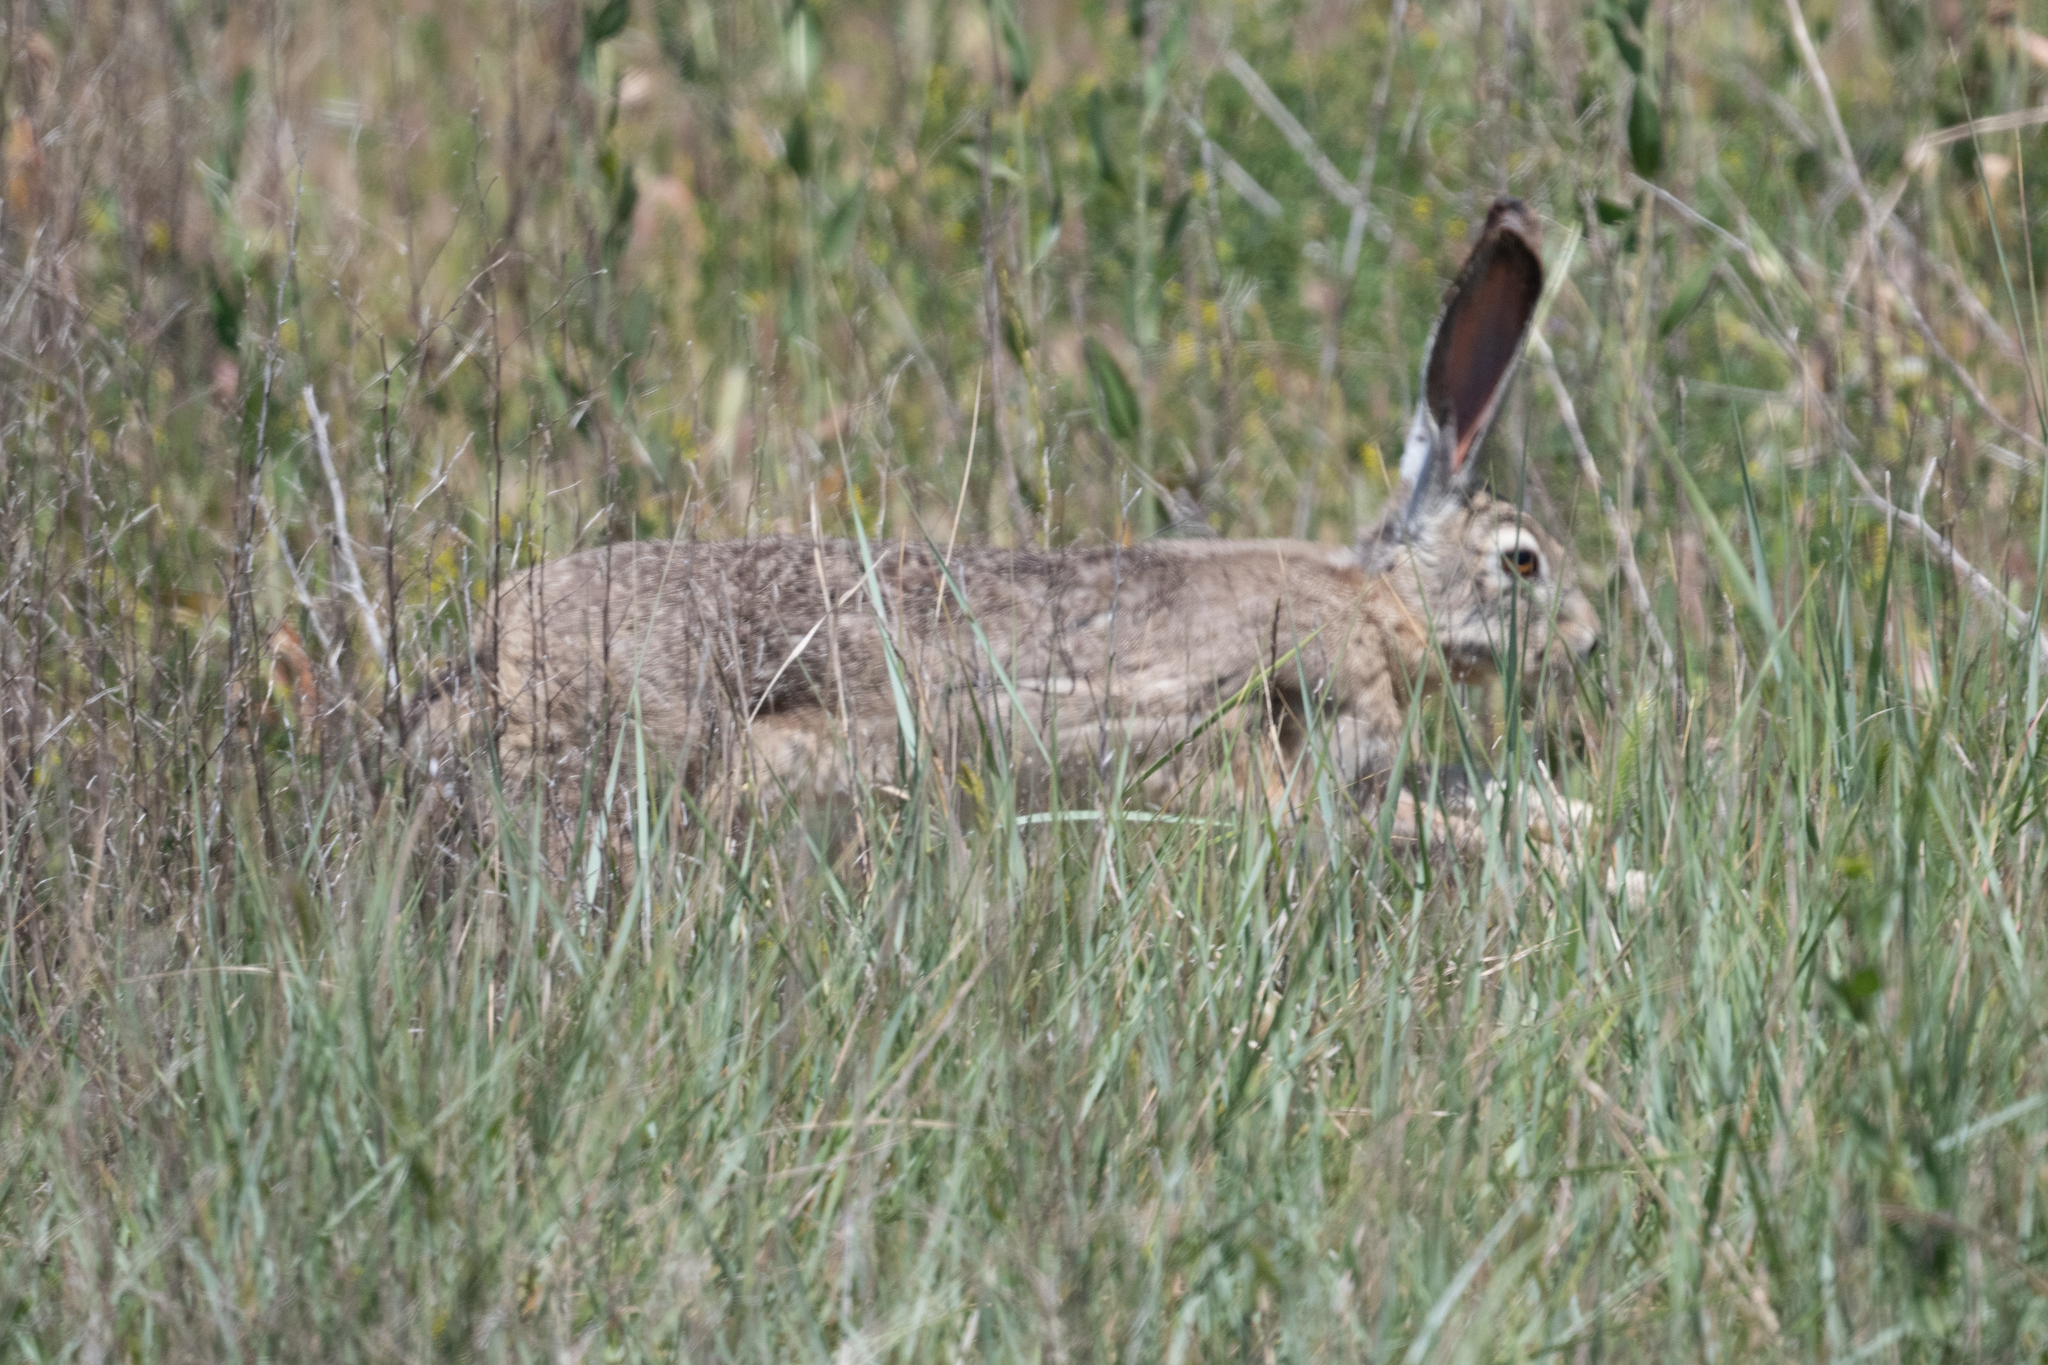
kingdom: Animalia
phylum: Chordata
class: Mammalia
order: Lagomorpha
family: Leporidae
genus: Lepus
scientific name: Lepus californicus
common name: Black-tailed jackrabbit
